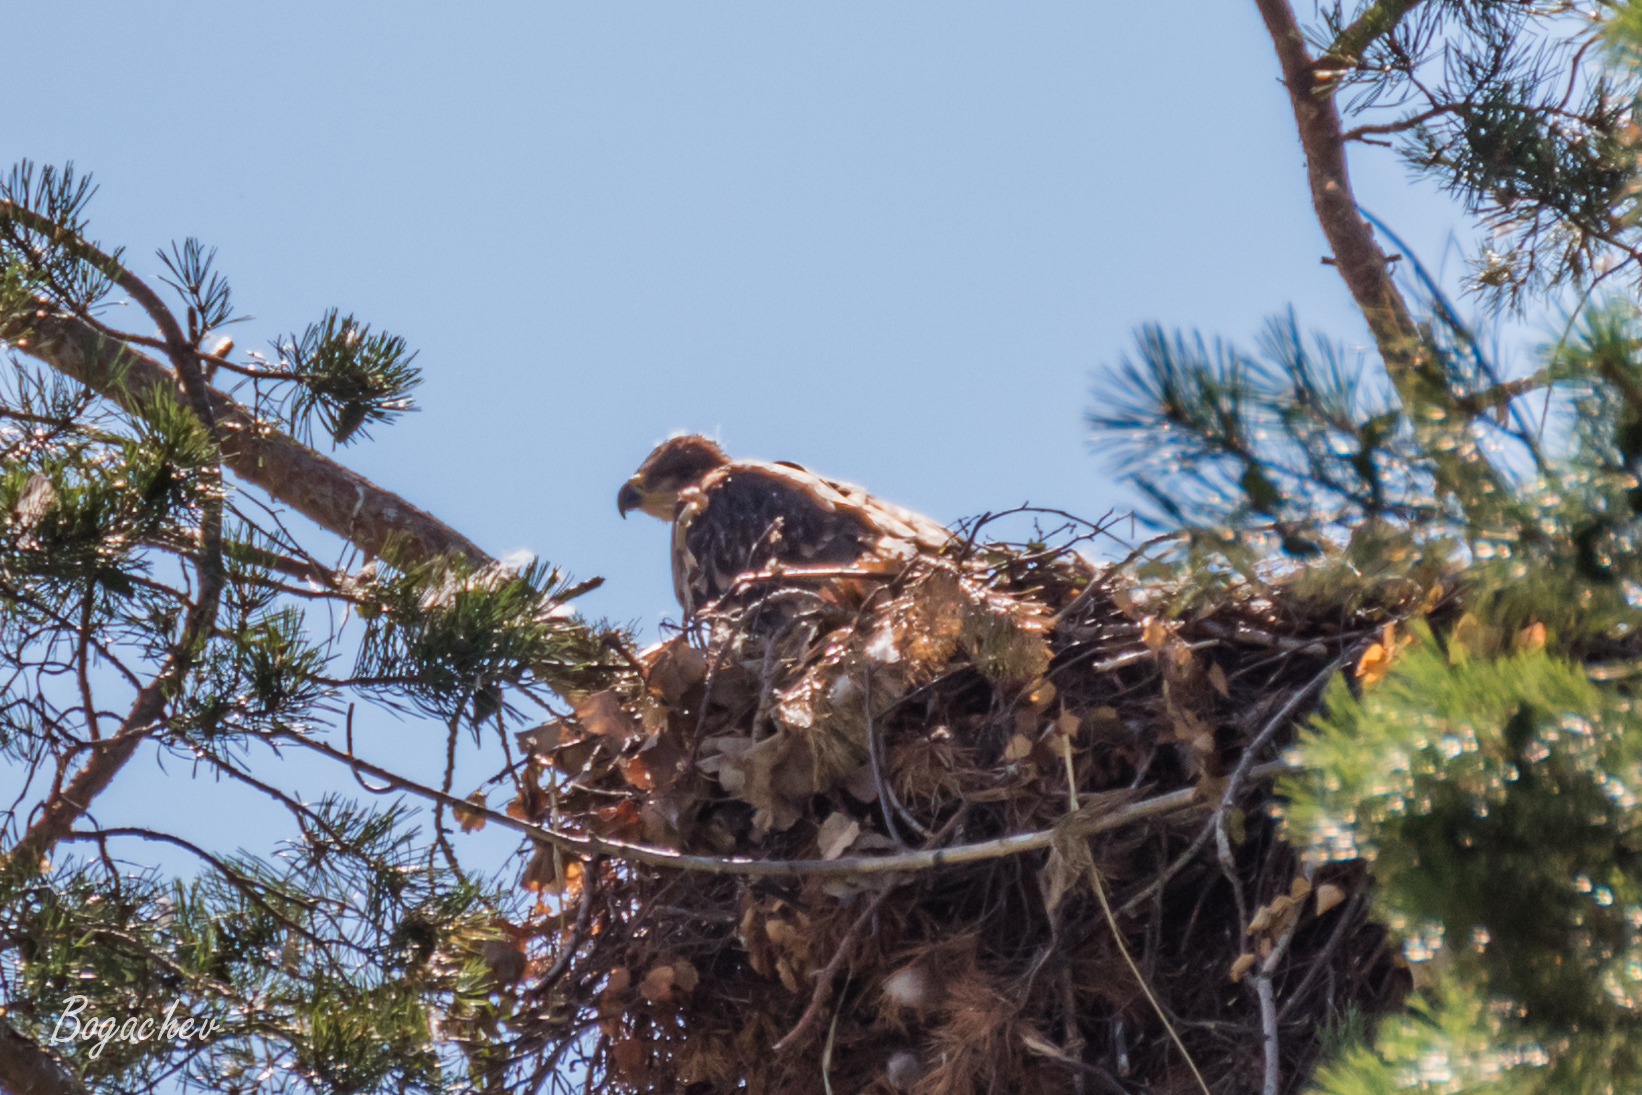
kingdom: Animalia
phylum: Chordata
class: Aves
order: Accipitriformes
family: Accipitridae
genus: Aquila
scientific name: Aquila heliaca
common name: Eastern imperial eagle
